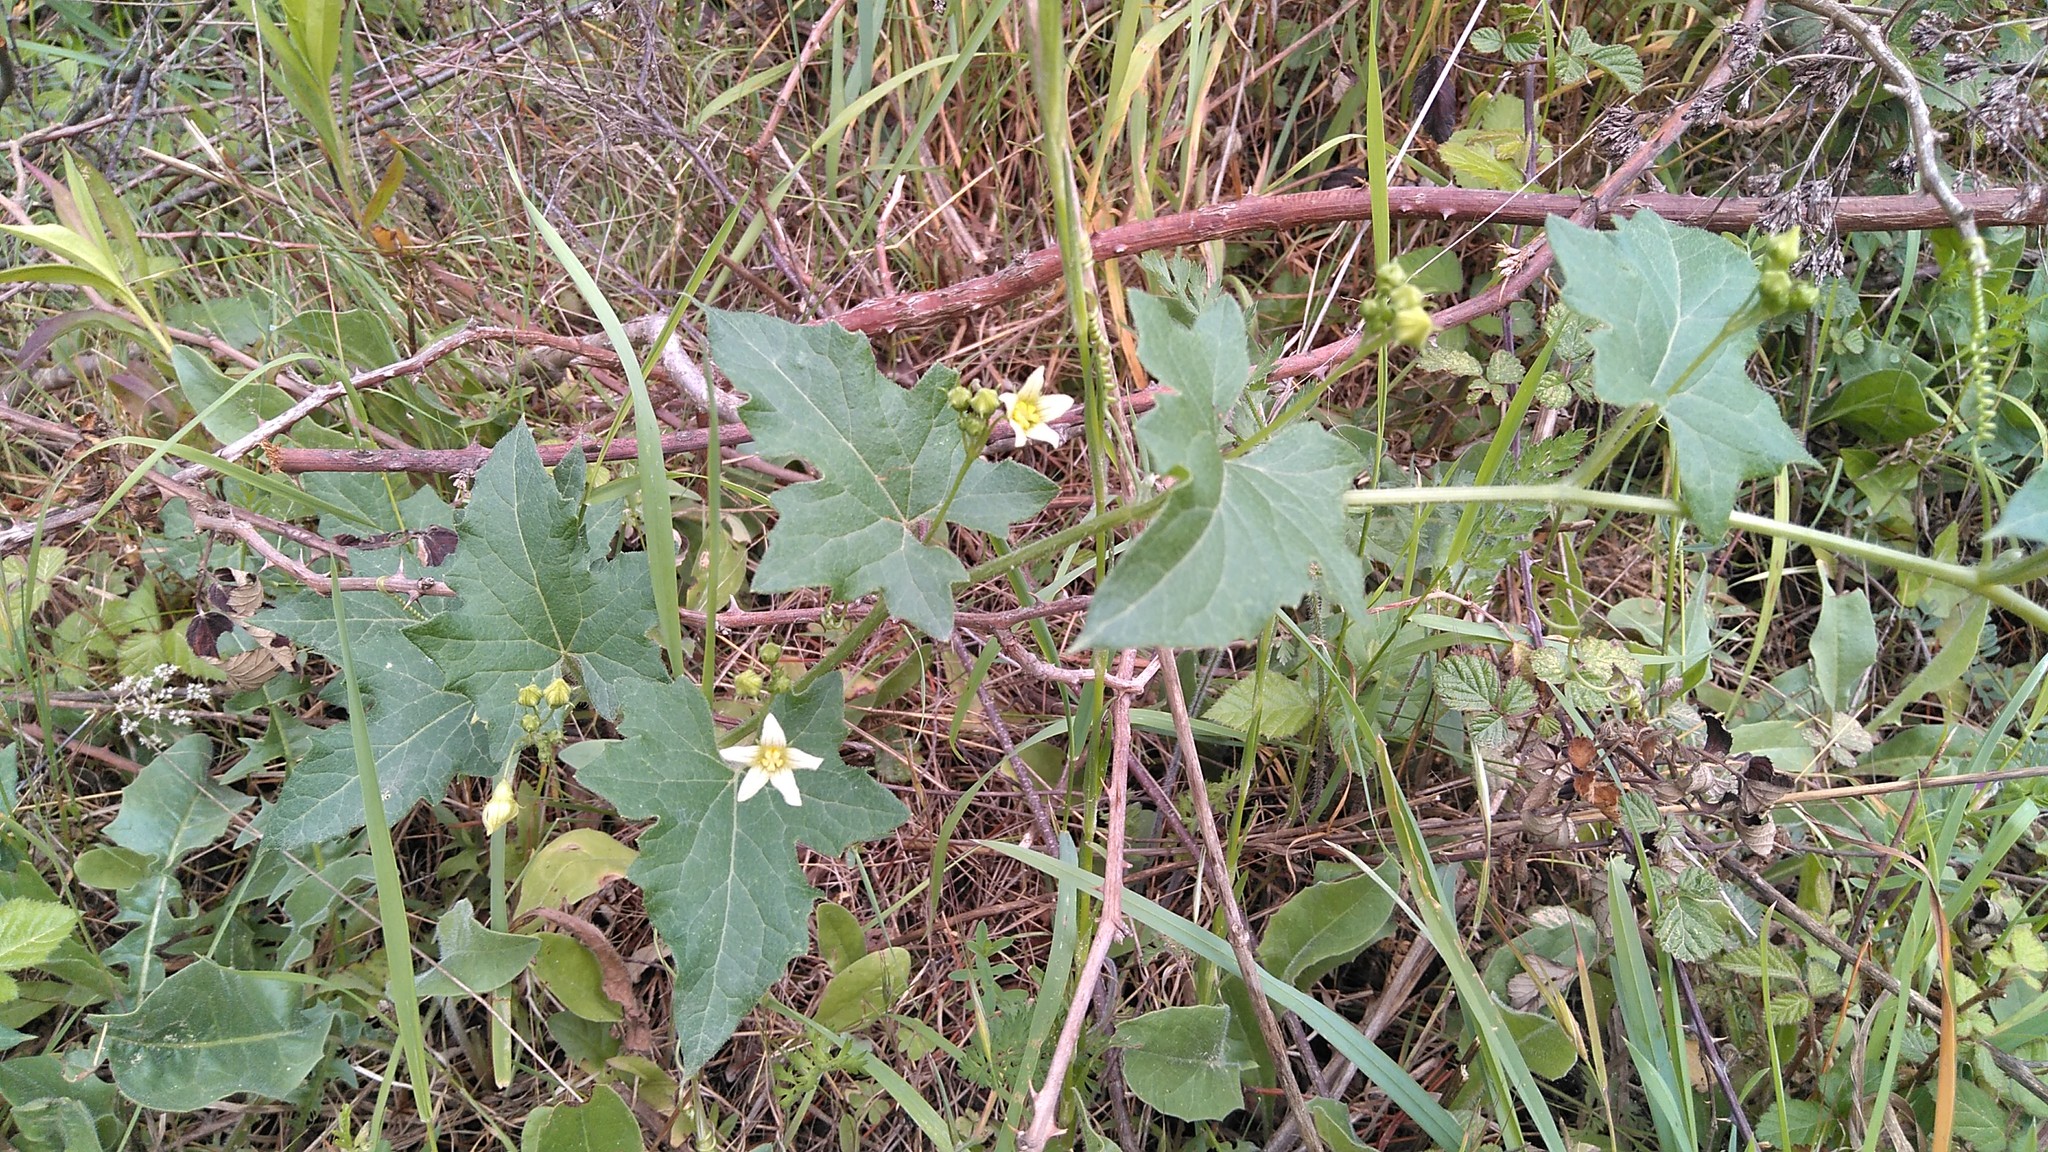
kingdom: Plantae
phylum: Tracheophyta
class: Magnoliopsida
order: Cucurbitales
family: Cucurbitaceae
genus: Bryonia
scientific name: Bryonia cretica
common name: Cretan bryony
